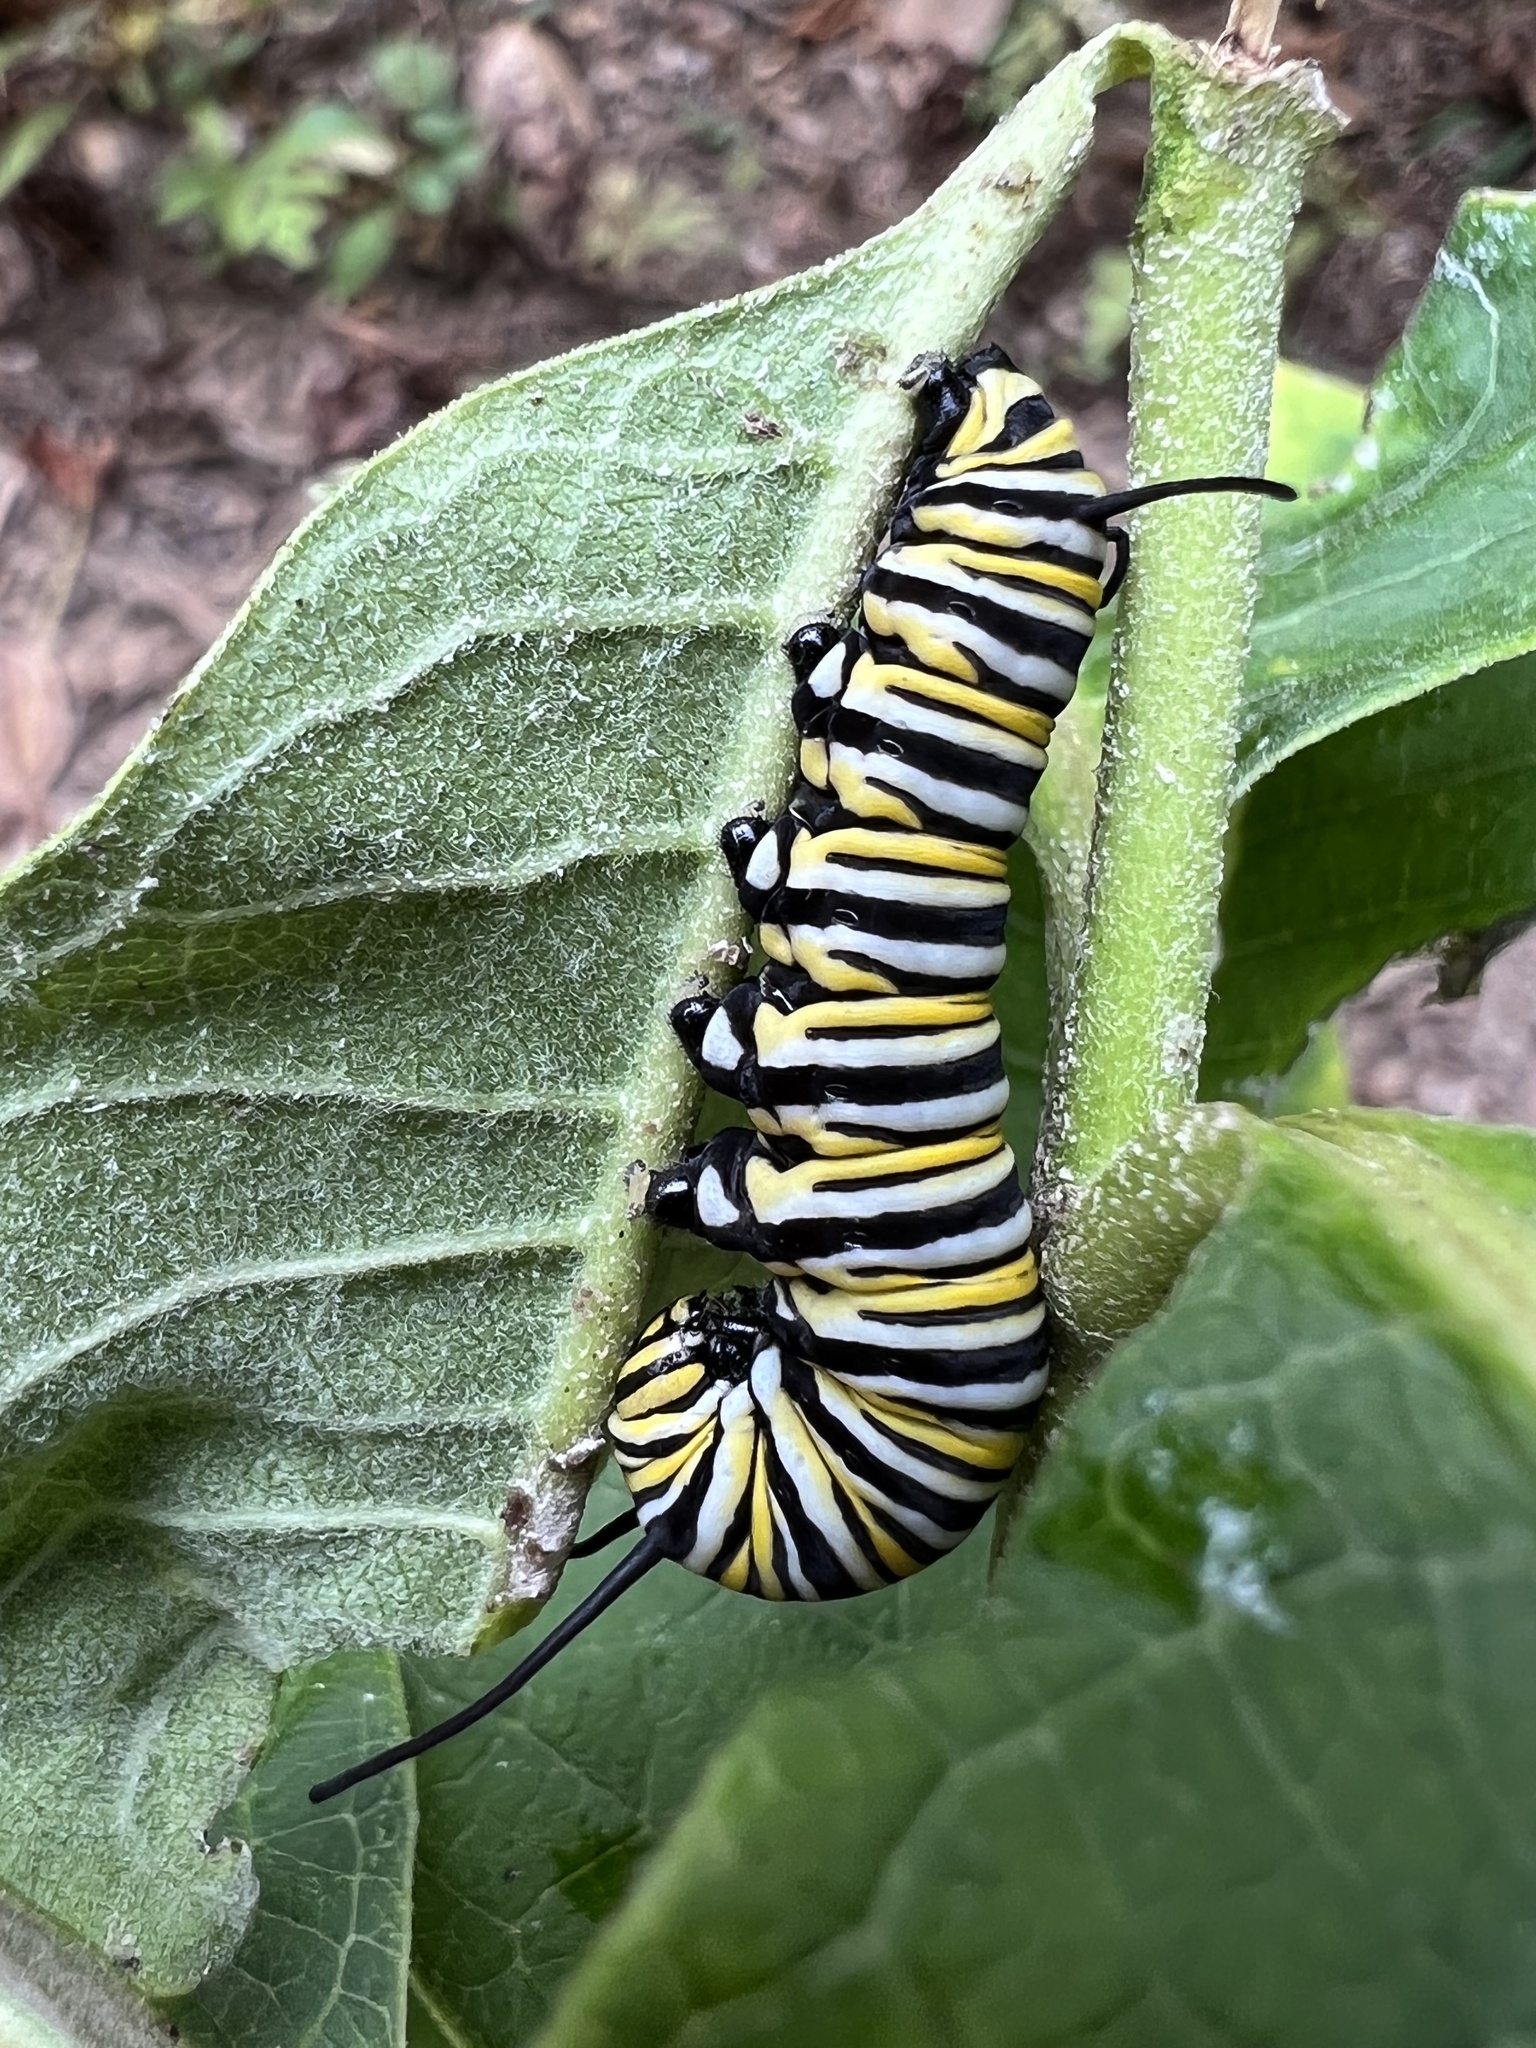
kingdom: Animalia
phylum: Arthropoda
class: Insecta
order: Lepidoptera
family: Nymphalidae
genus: Danaus
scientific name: Danaus plexippus
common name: Monarch
